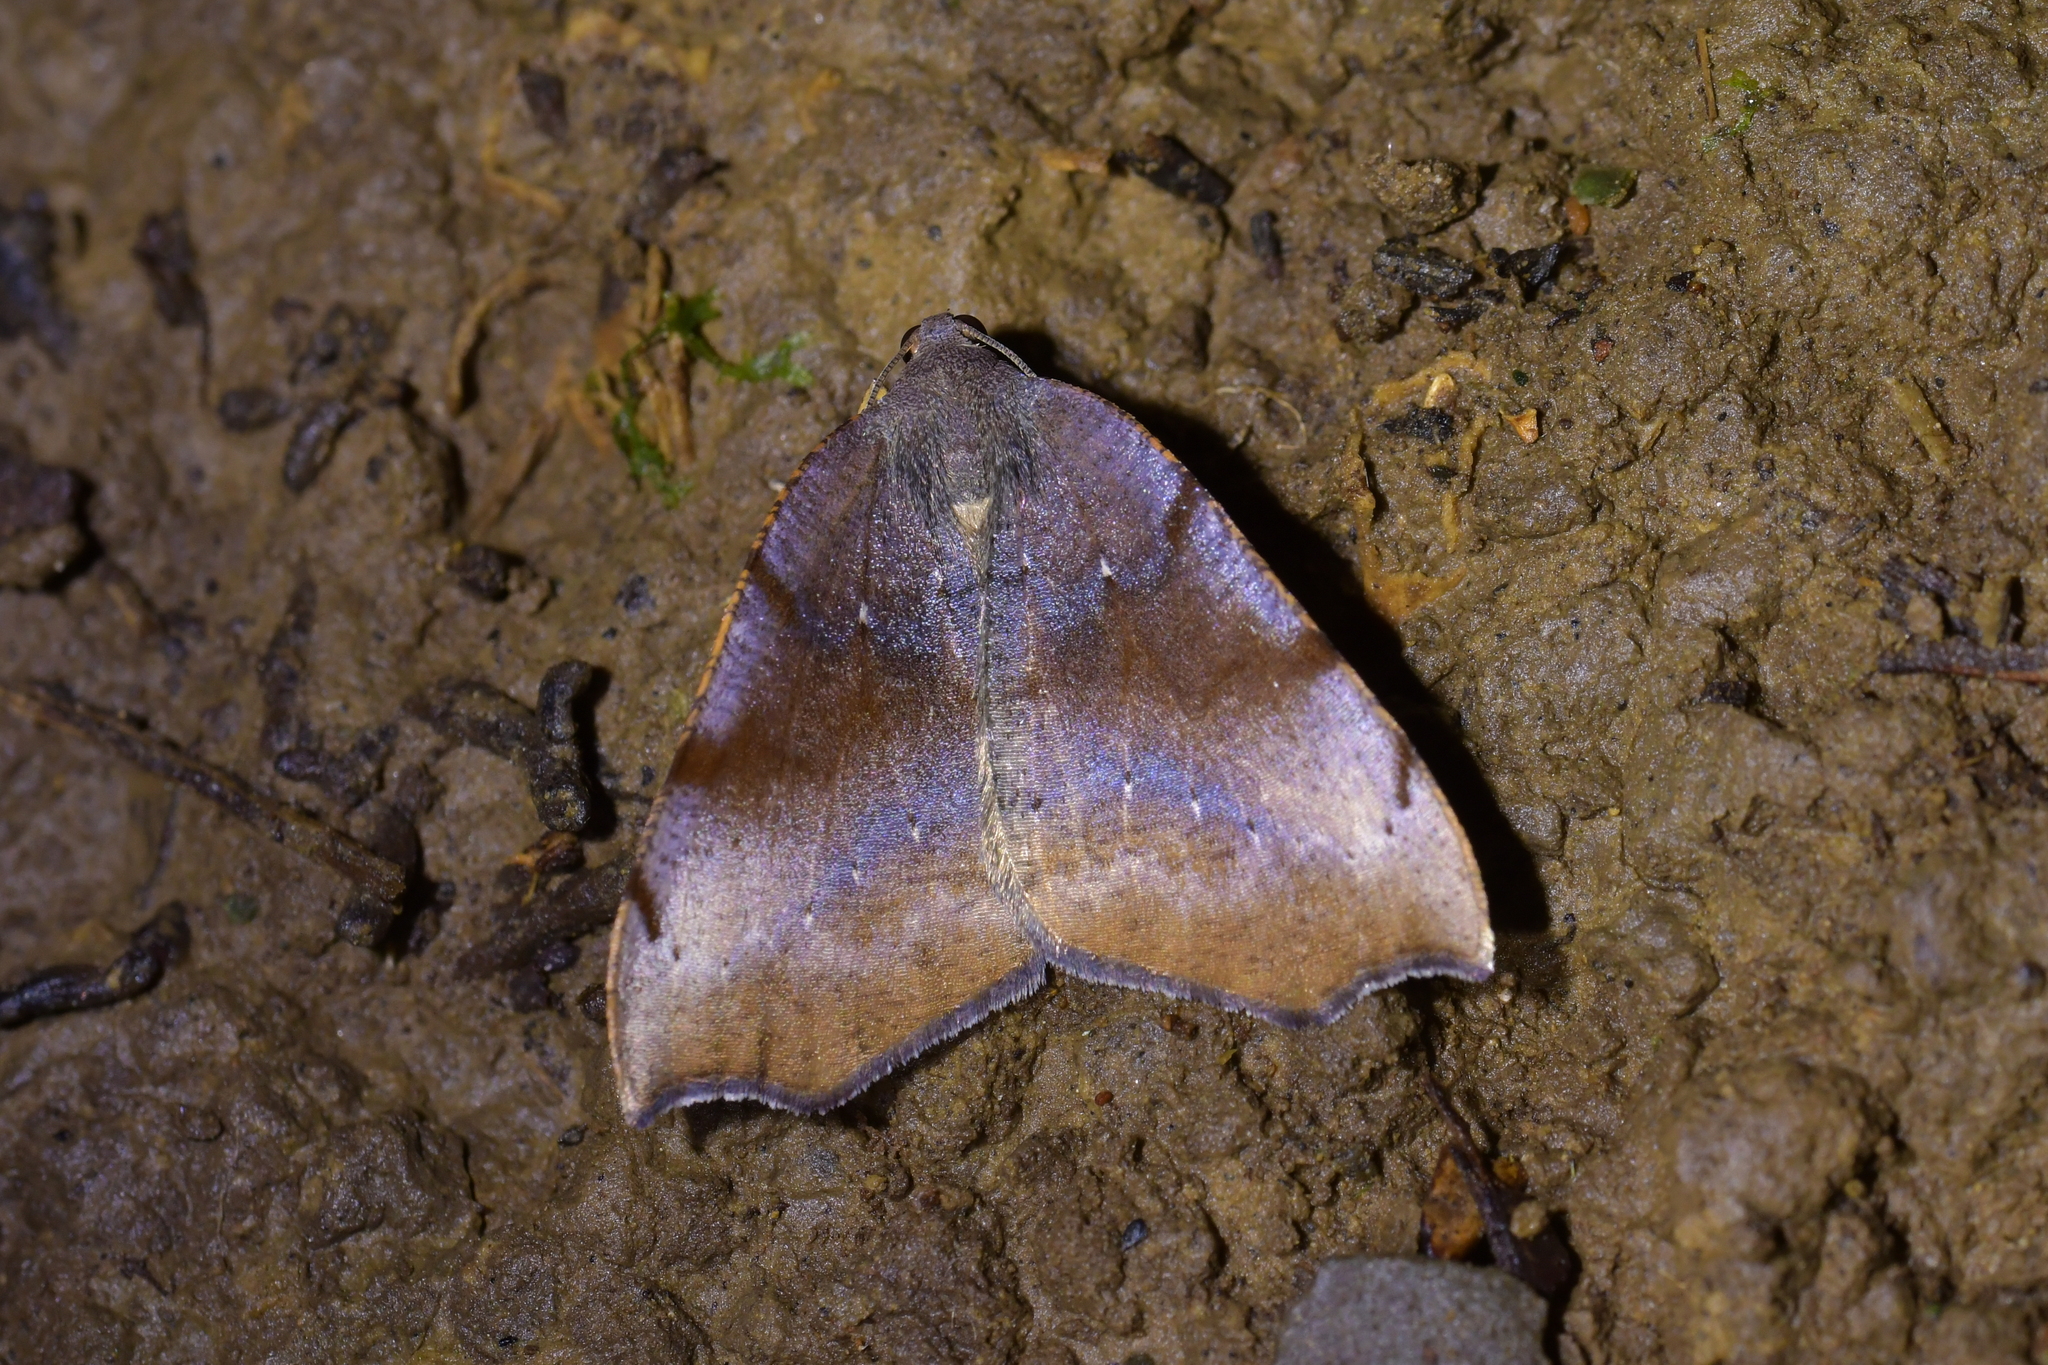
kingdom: Animalia
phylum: Arthropoda
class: Insecta
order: Lepidoptera
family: Geometridae
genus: Sestra
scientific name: Sestra flexata
